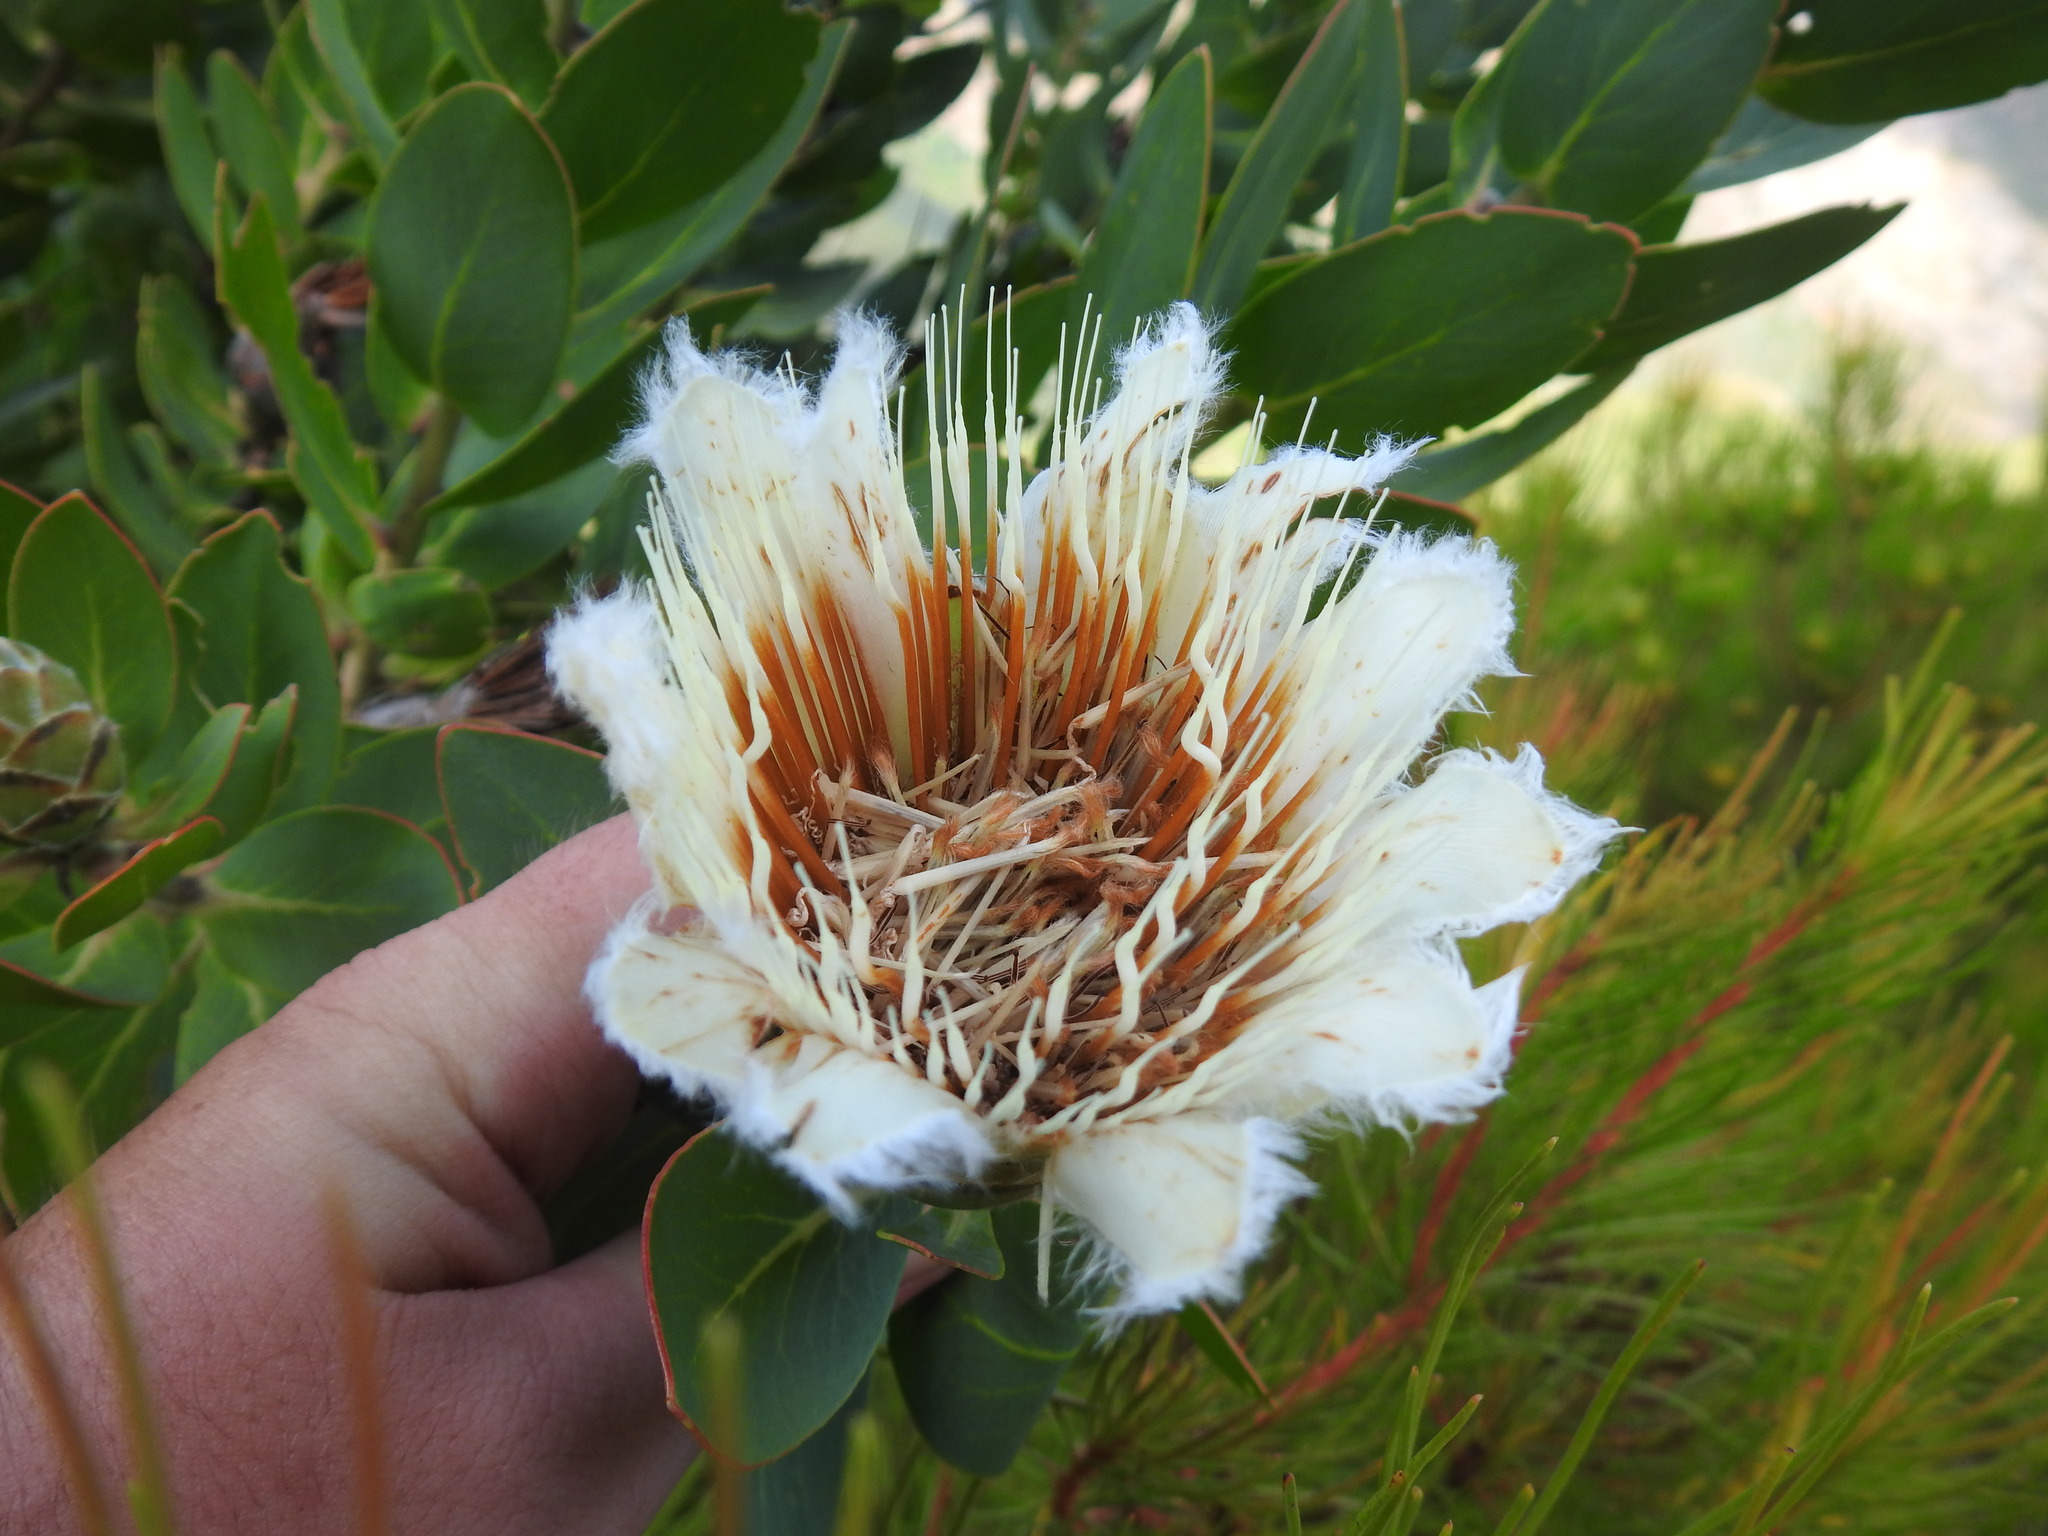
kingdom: Plantae
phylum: Tracheophyta
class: Magnoliopsida
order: Proteales
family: Proteaceae
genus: Protea
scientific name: Protea lacticolor
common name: Hottentot sugarbush
